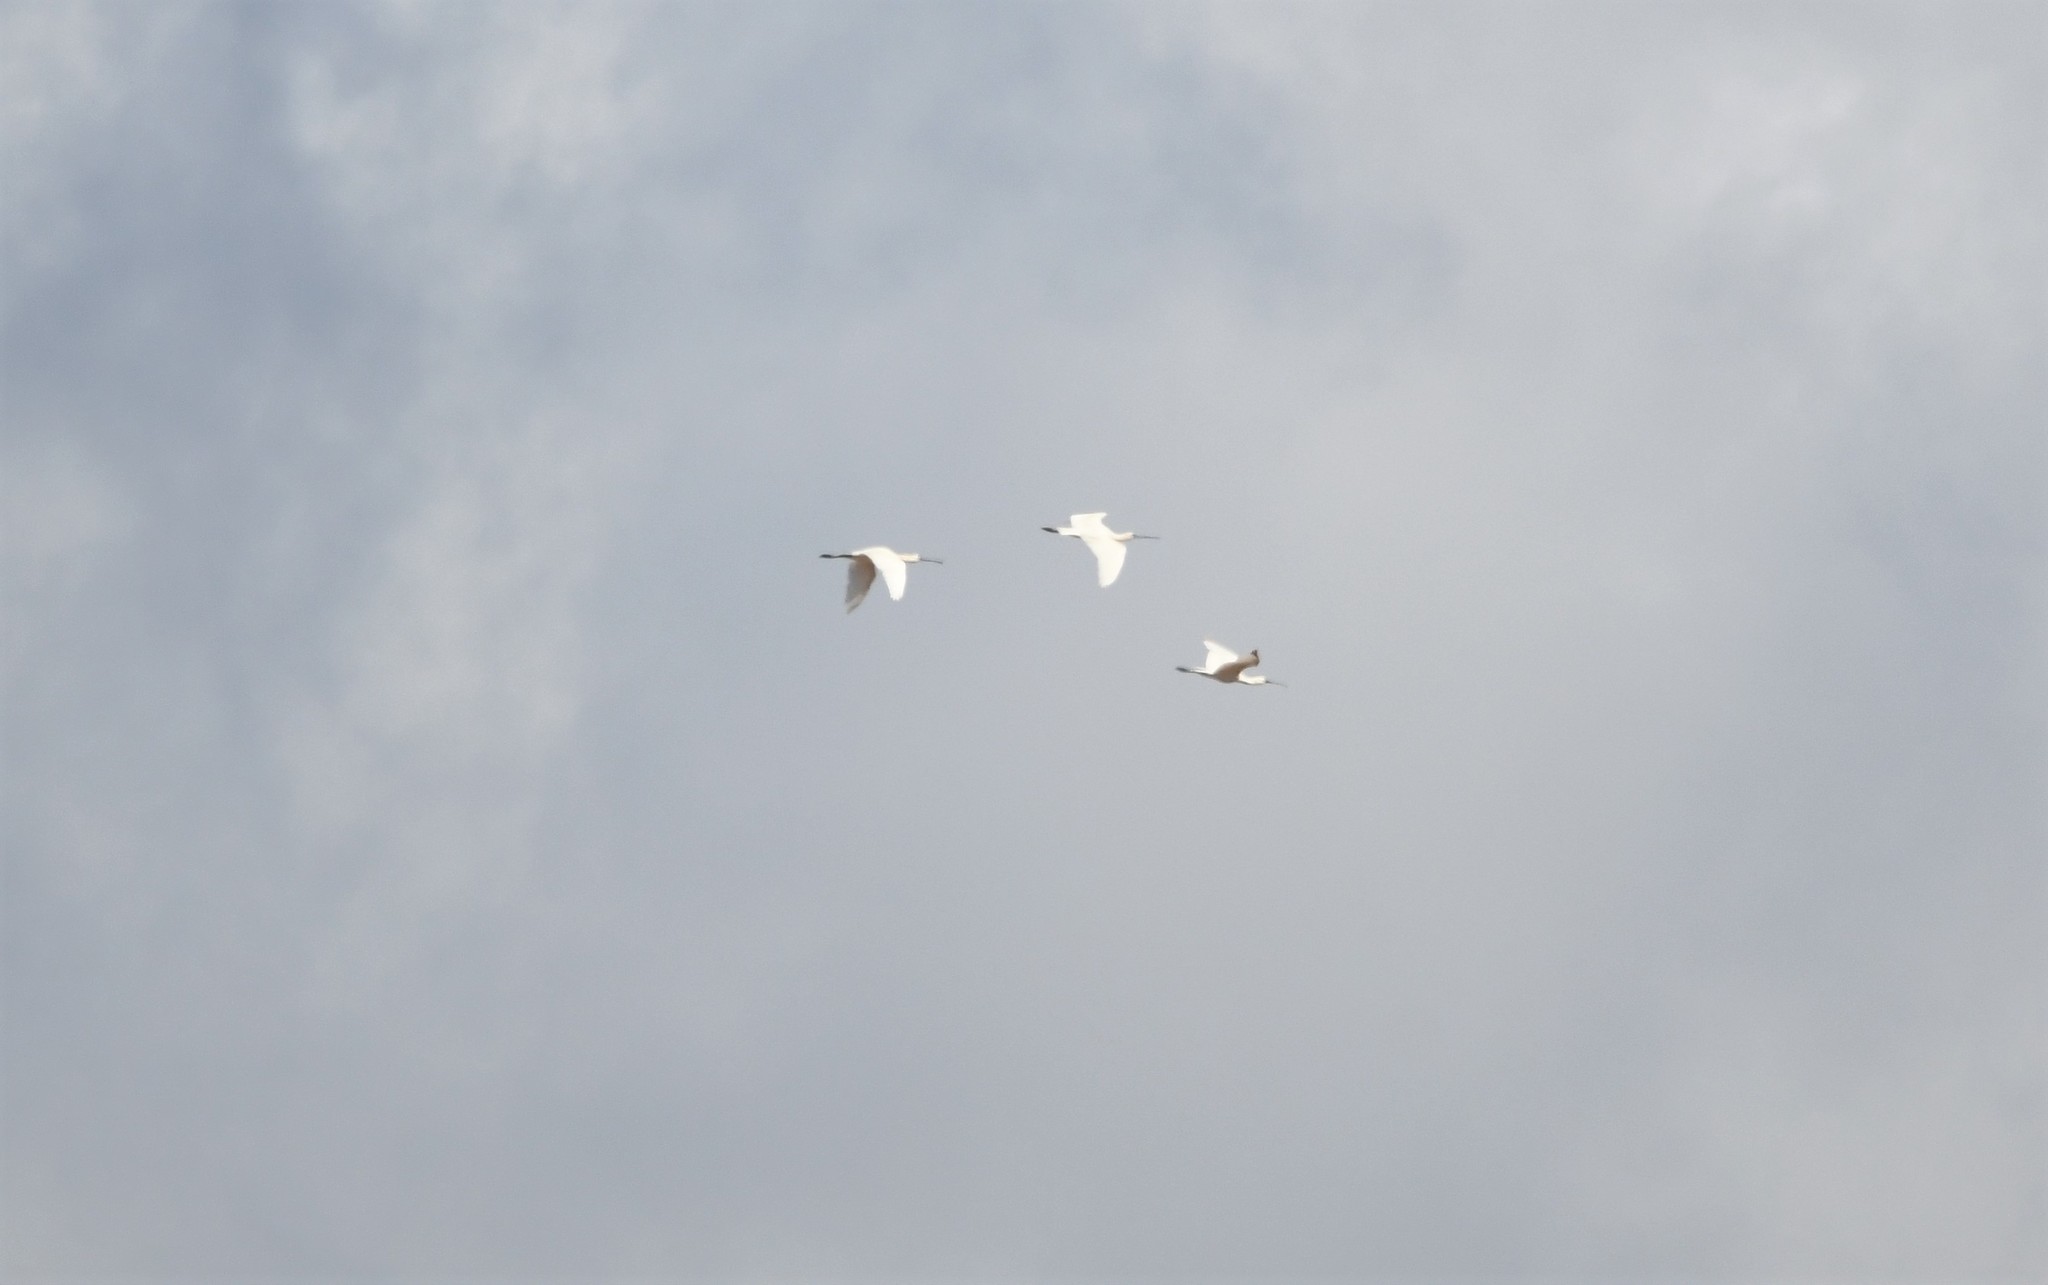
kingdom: Animalia
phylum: Chordata
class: Aves
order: Pelecaniformes
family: Threskiornithidae
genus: Platalea
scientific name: Platalea leucorodia
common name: Eurasian spoonbill
